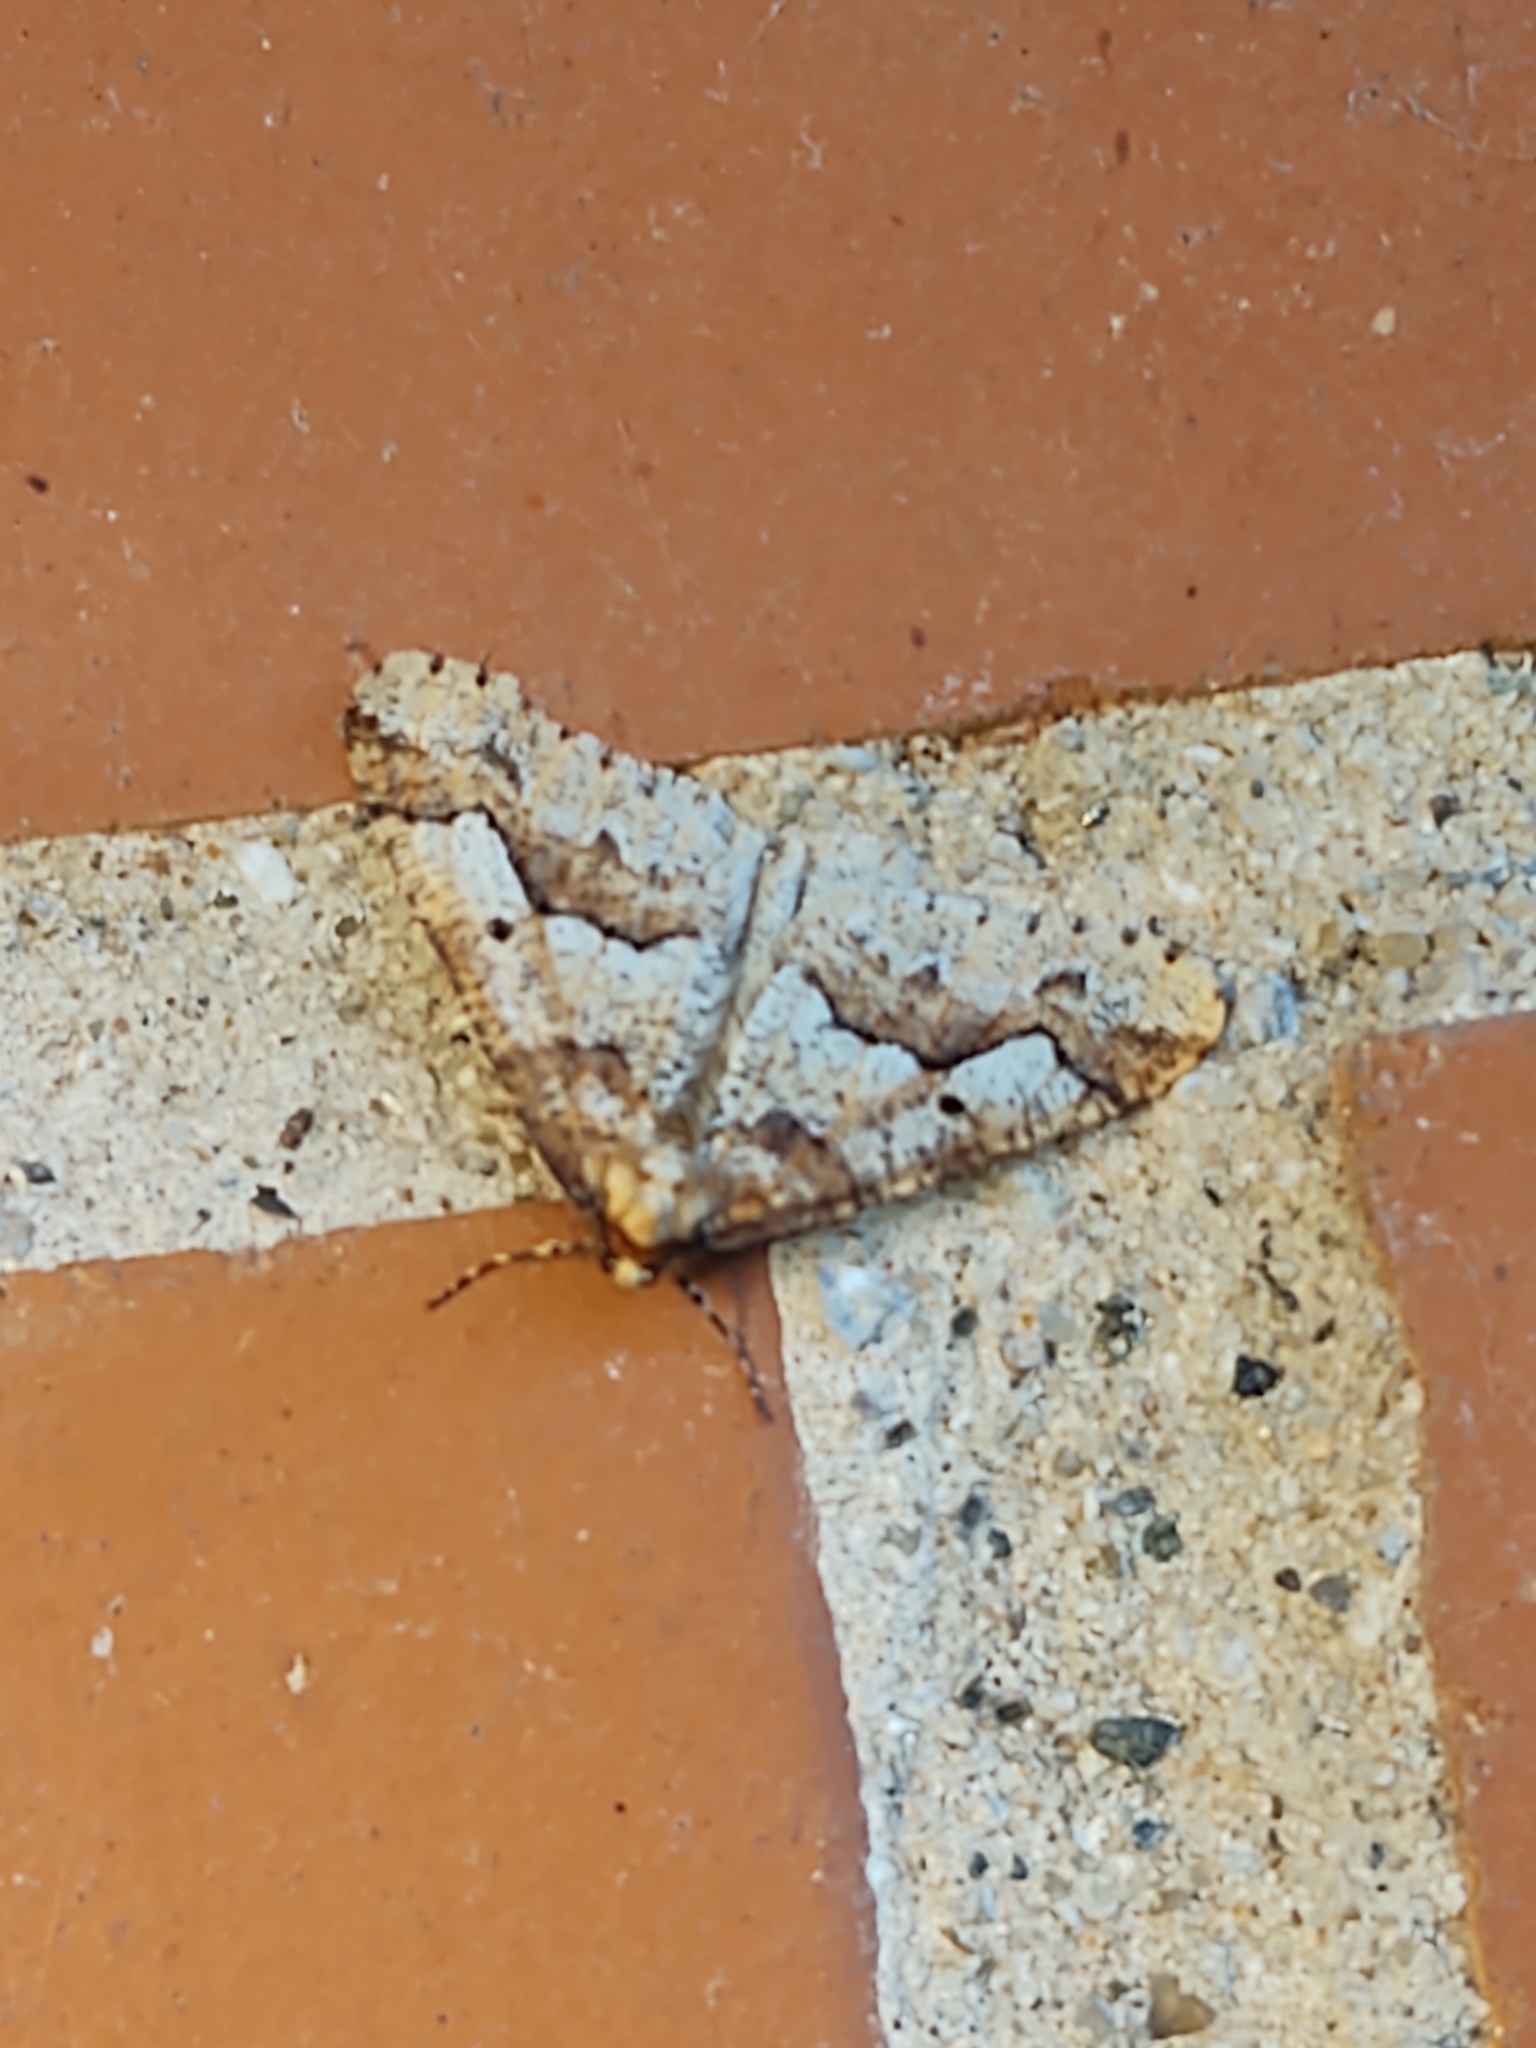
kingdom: Animalia
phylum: Arthropoda
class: Insecta
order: Lepidoptera
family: Geometridae
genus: Erannis
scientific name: Erannis defoliaria
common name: Mottled umber
